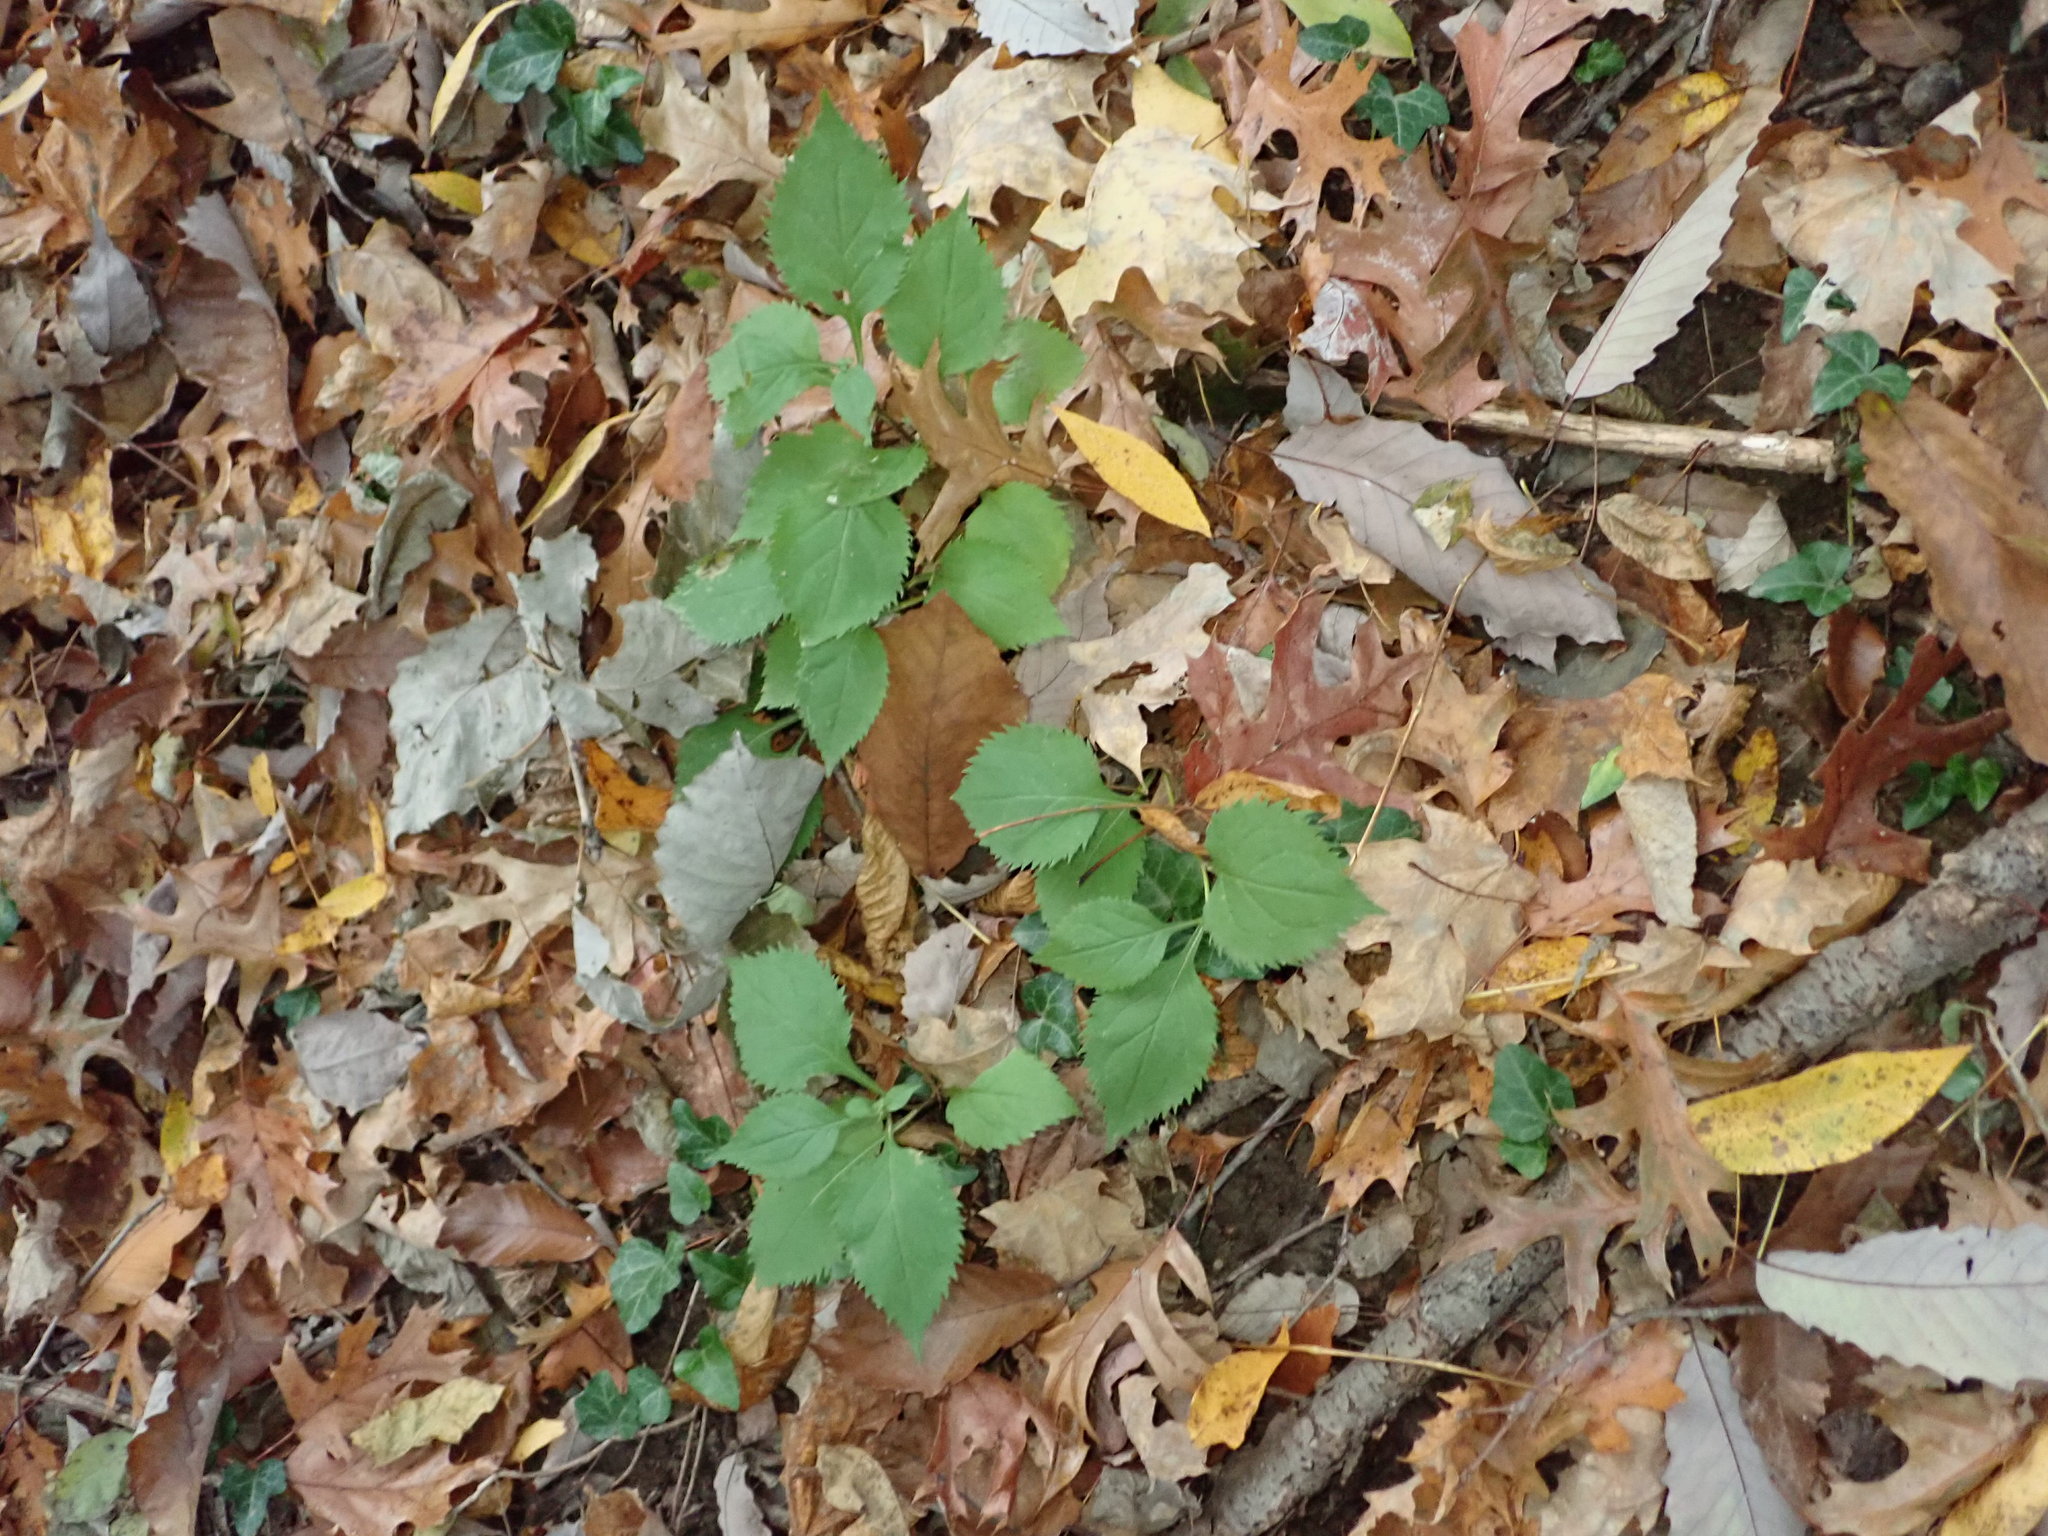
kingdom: Plantae
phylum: Tracheophyta
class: Magnoliopsida
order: Asterales
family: Asteraceae
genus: Solidago
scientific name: Solidago flexicaulis
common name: Zig-zag goldenrod
